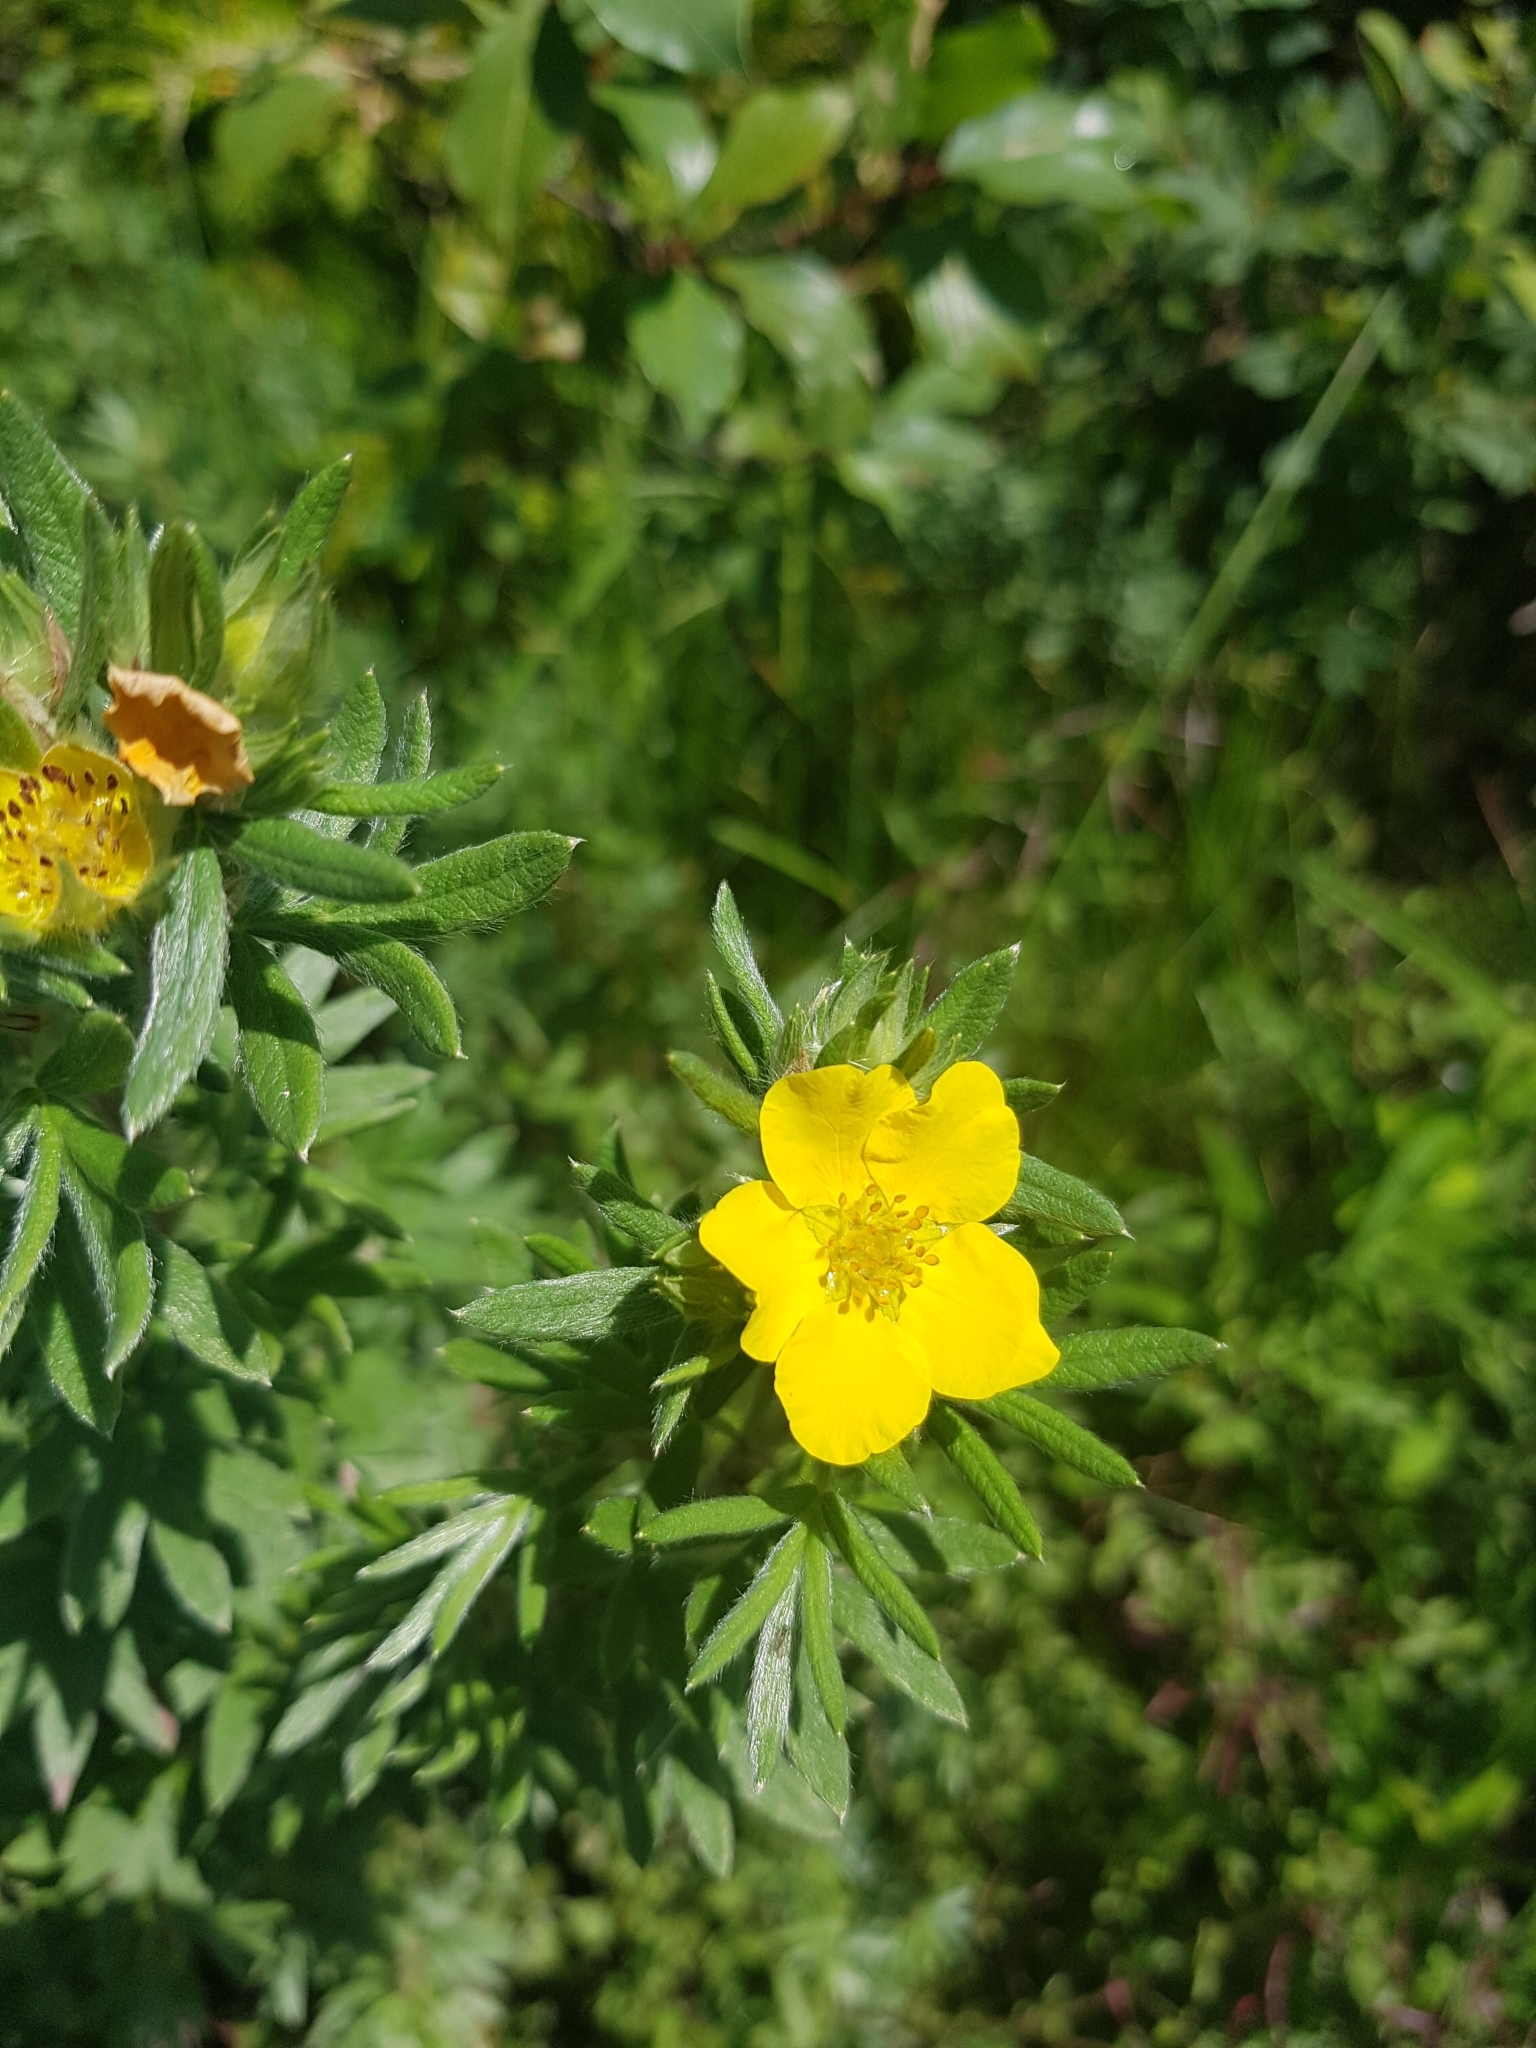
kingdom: Plantae
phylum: Tracheophyta
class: Magnoliopsida
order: Rosales
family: Rosaceae
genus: Dasiphora
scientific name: Dasiphora fruticosa
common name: Shrubby cinquefoil
